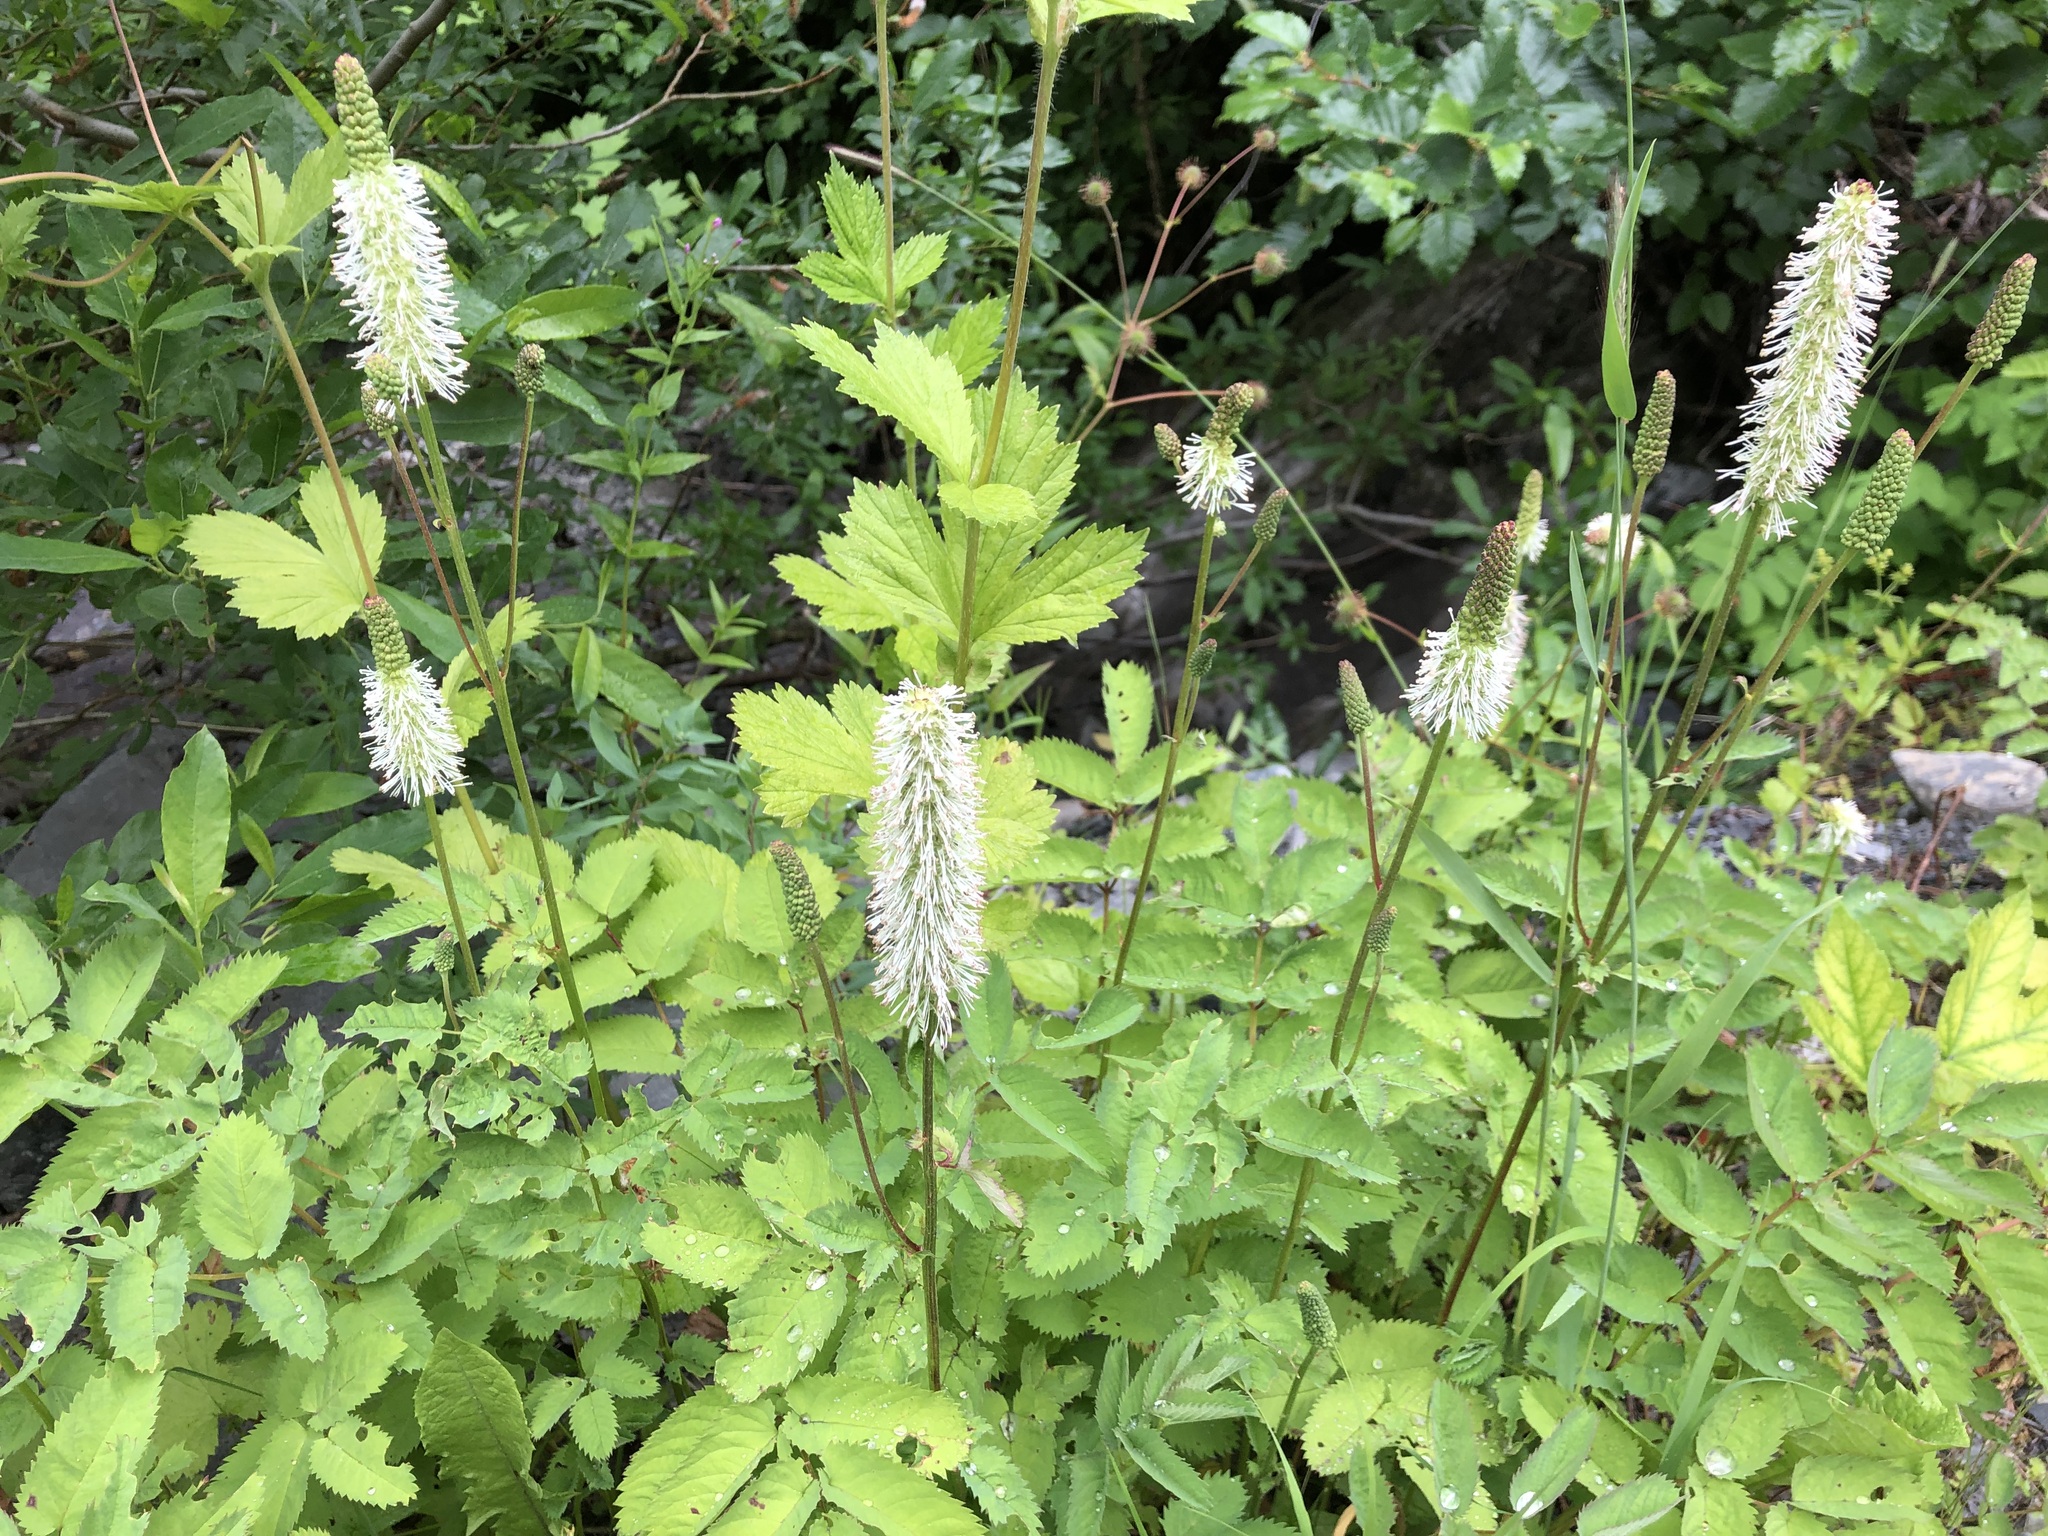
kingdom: Plantae
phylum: Tracheophyta
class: Magnoliopsida
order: Rosales
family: Rosaceae
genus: Sanguisorba
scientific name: Sanguisorba stipulata
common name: Sitka burnet
